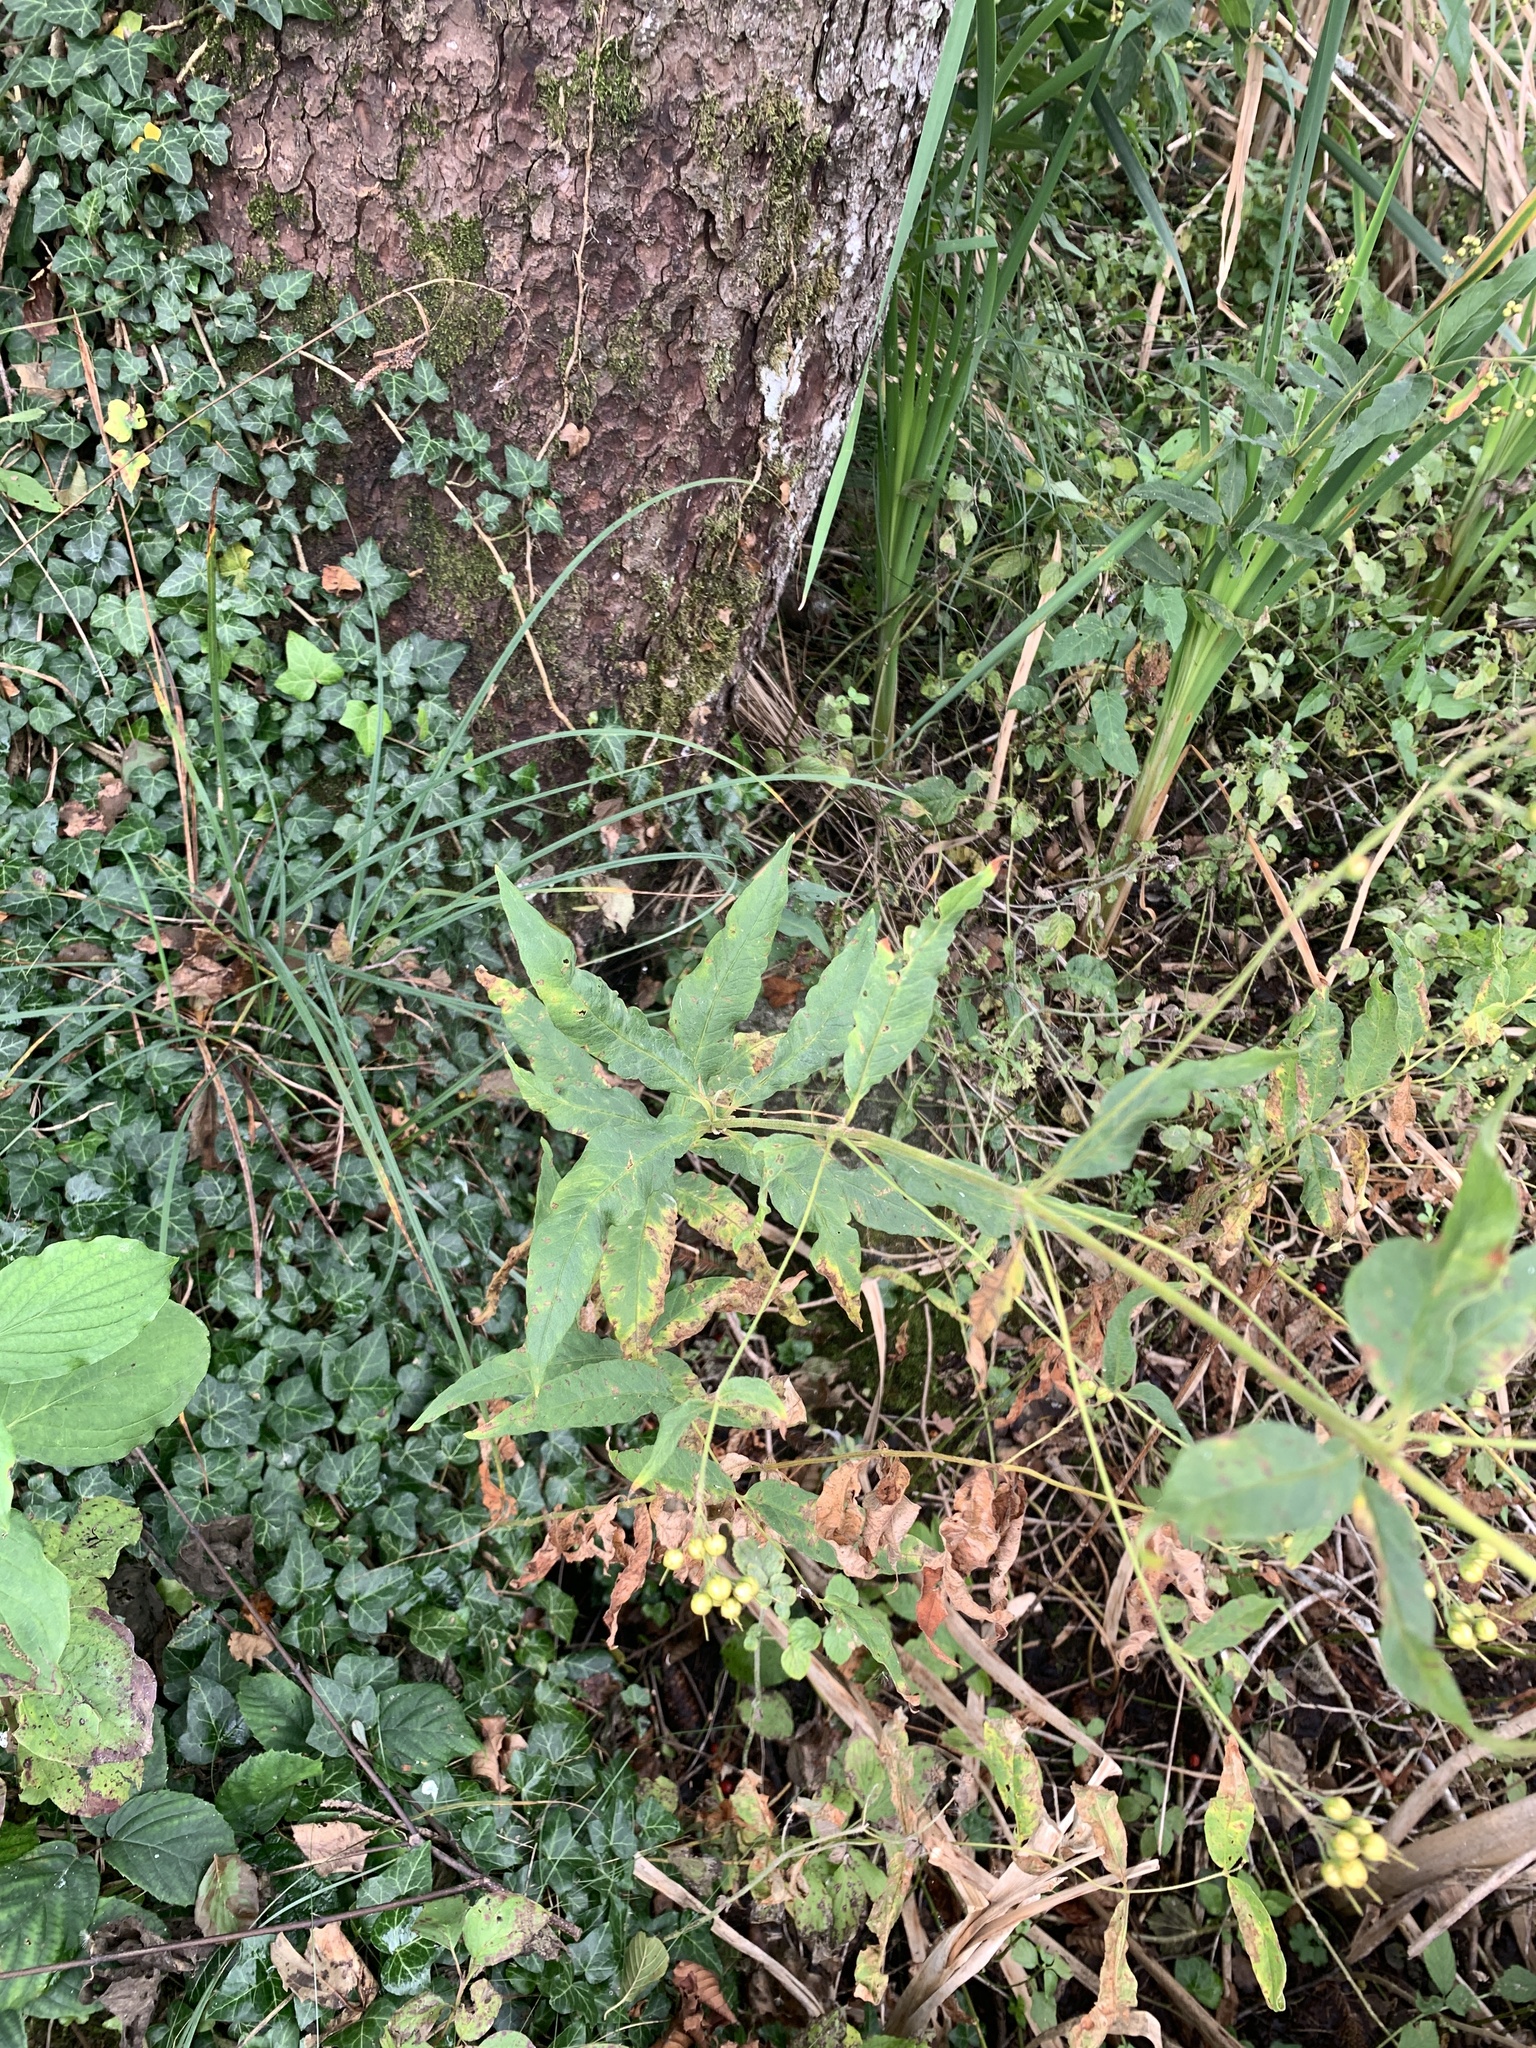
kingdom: Plantae
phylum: Tracheophyta
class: Magnoliopsida
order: Ericales
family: Primulaceae
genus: Lysimachia
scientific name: Lysimachia vulgaris
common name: Yellow loosestrife
